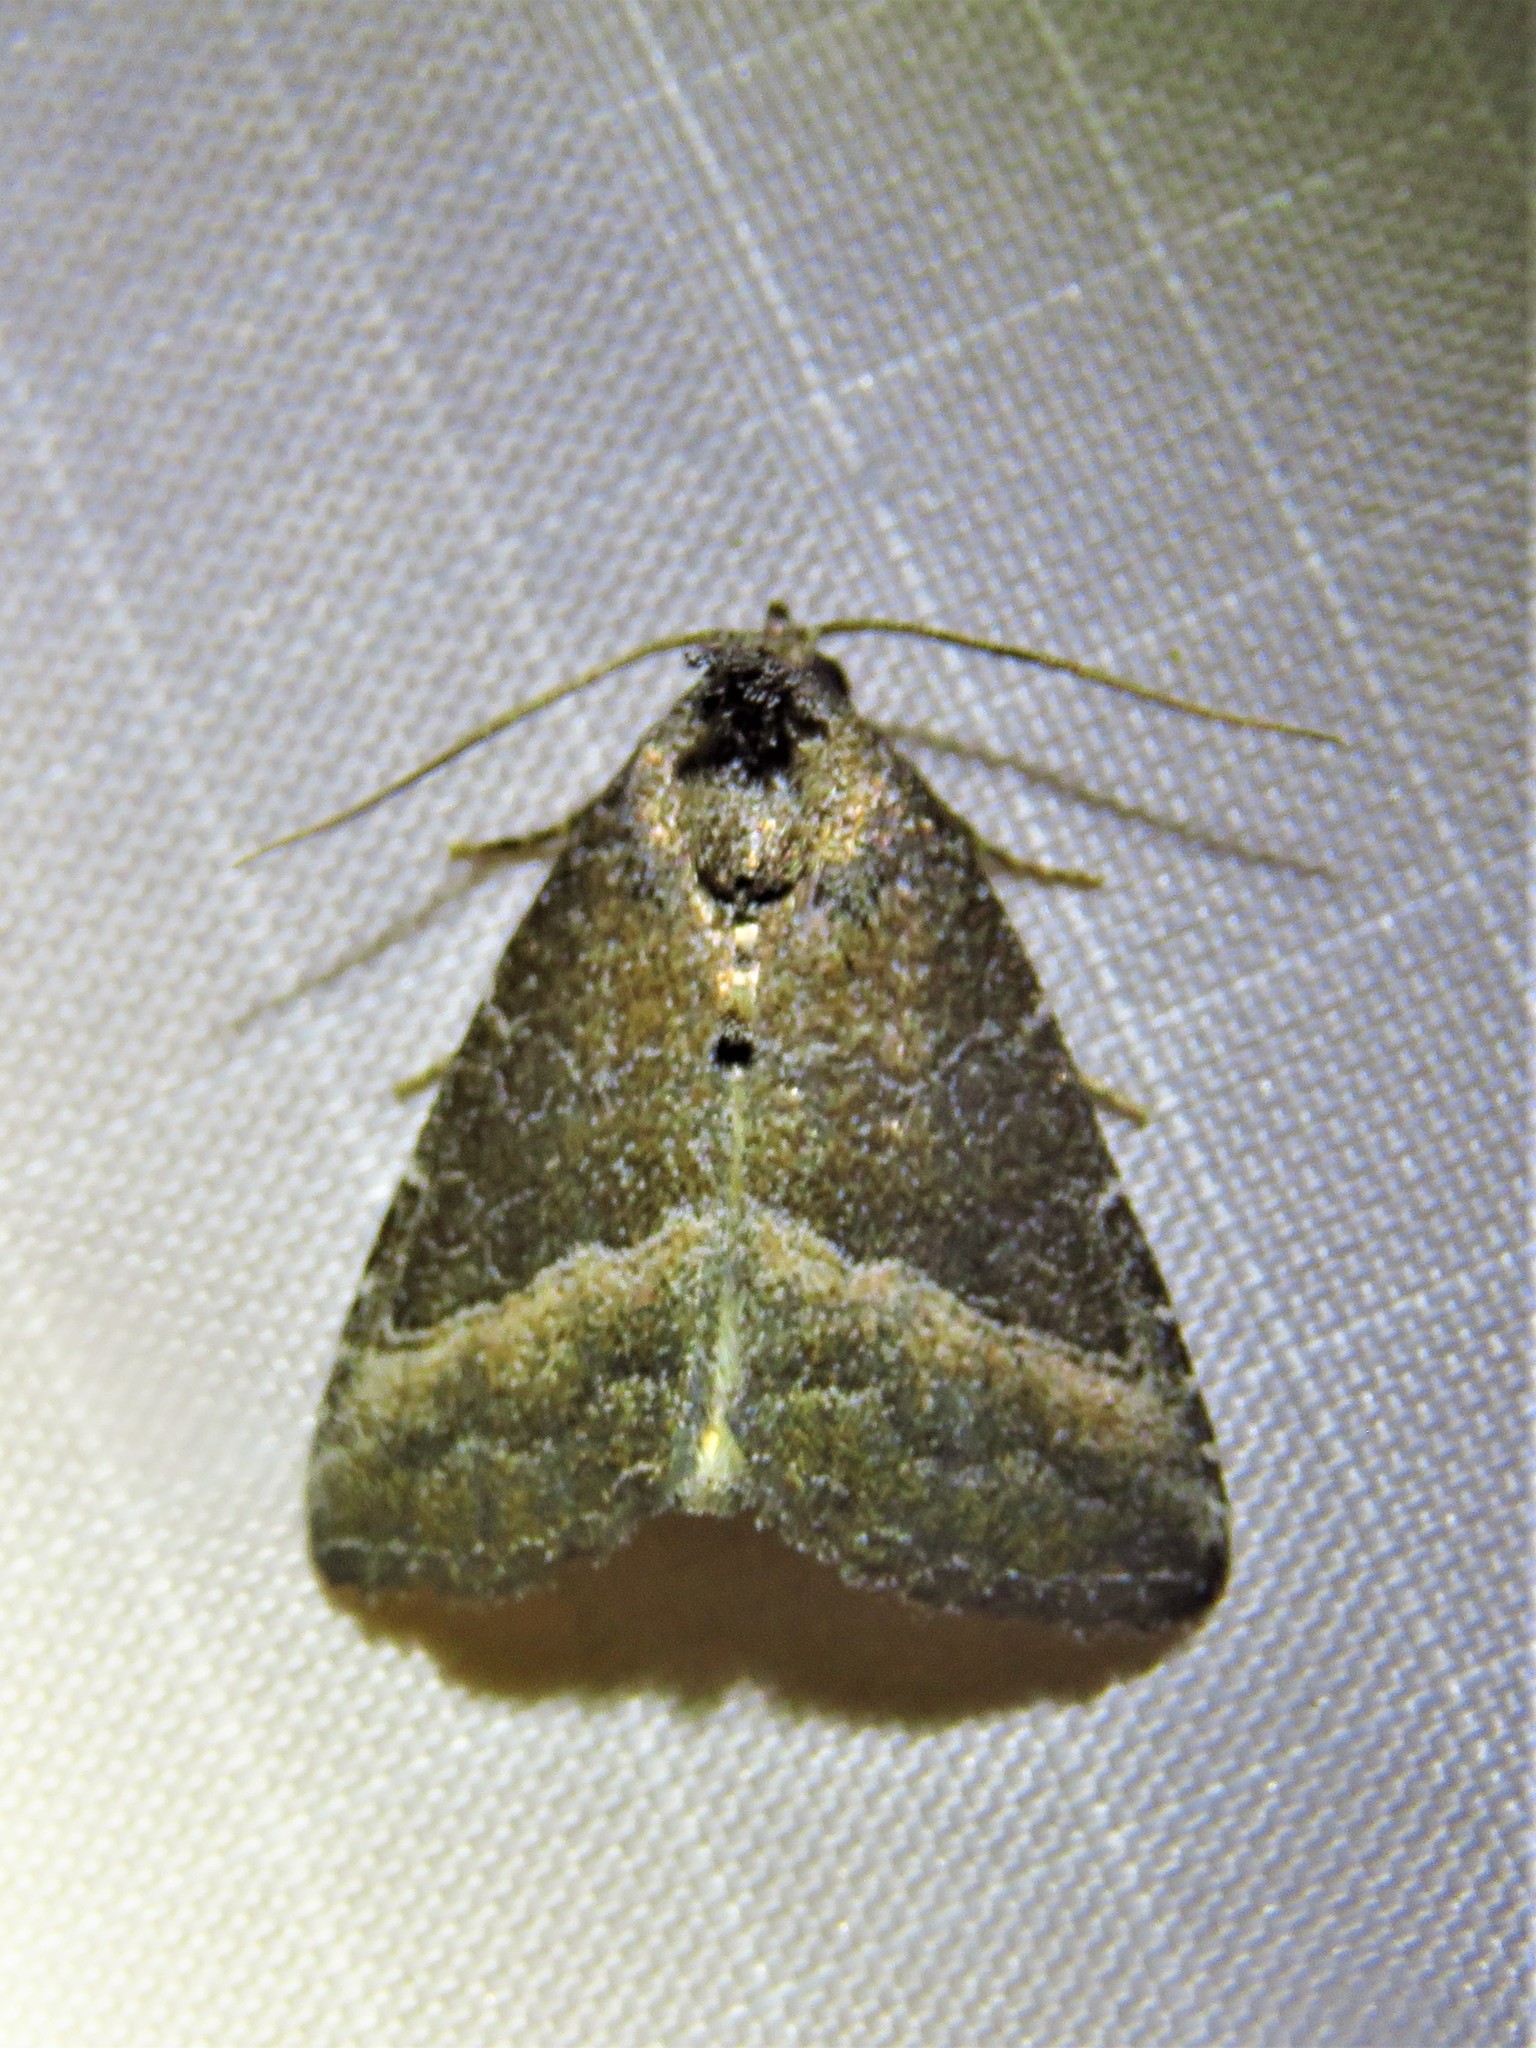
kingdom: Animalia
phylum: Arthropoda
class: Insecta
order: Lepidoptera
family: Noctuidae
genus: Ogdoconta
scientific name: Ogdoconta cinereola
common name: Common pinkband
